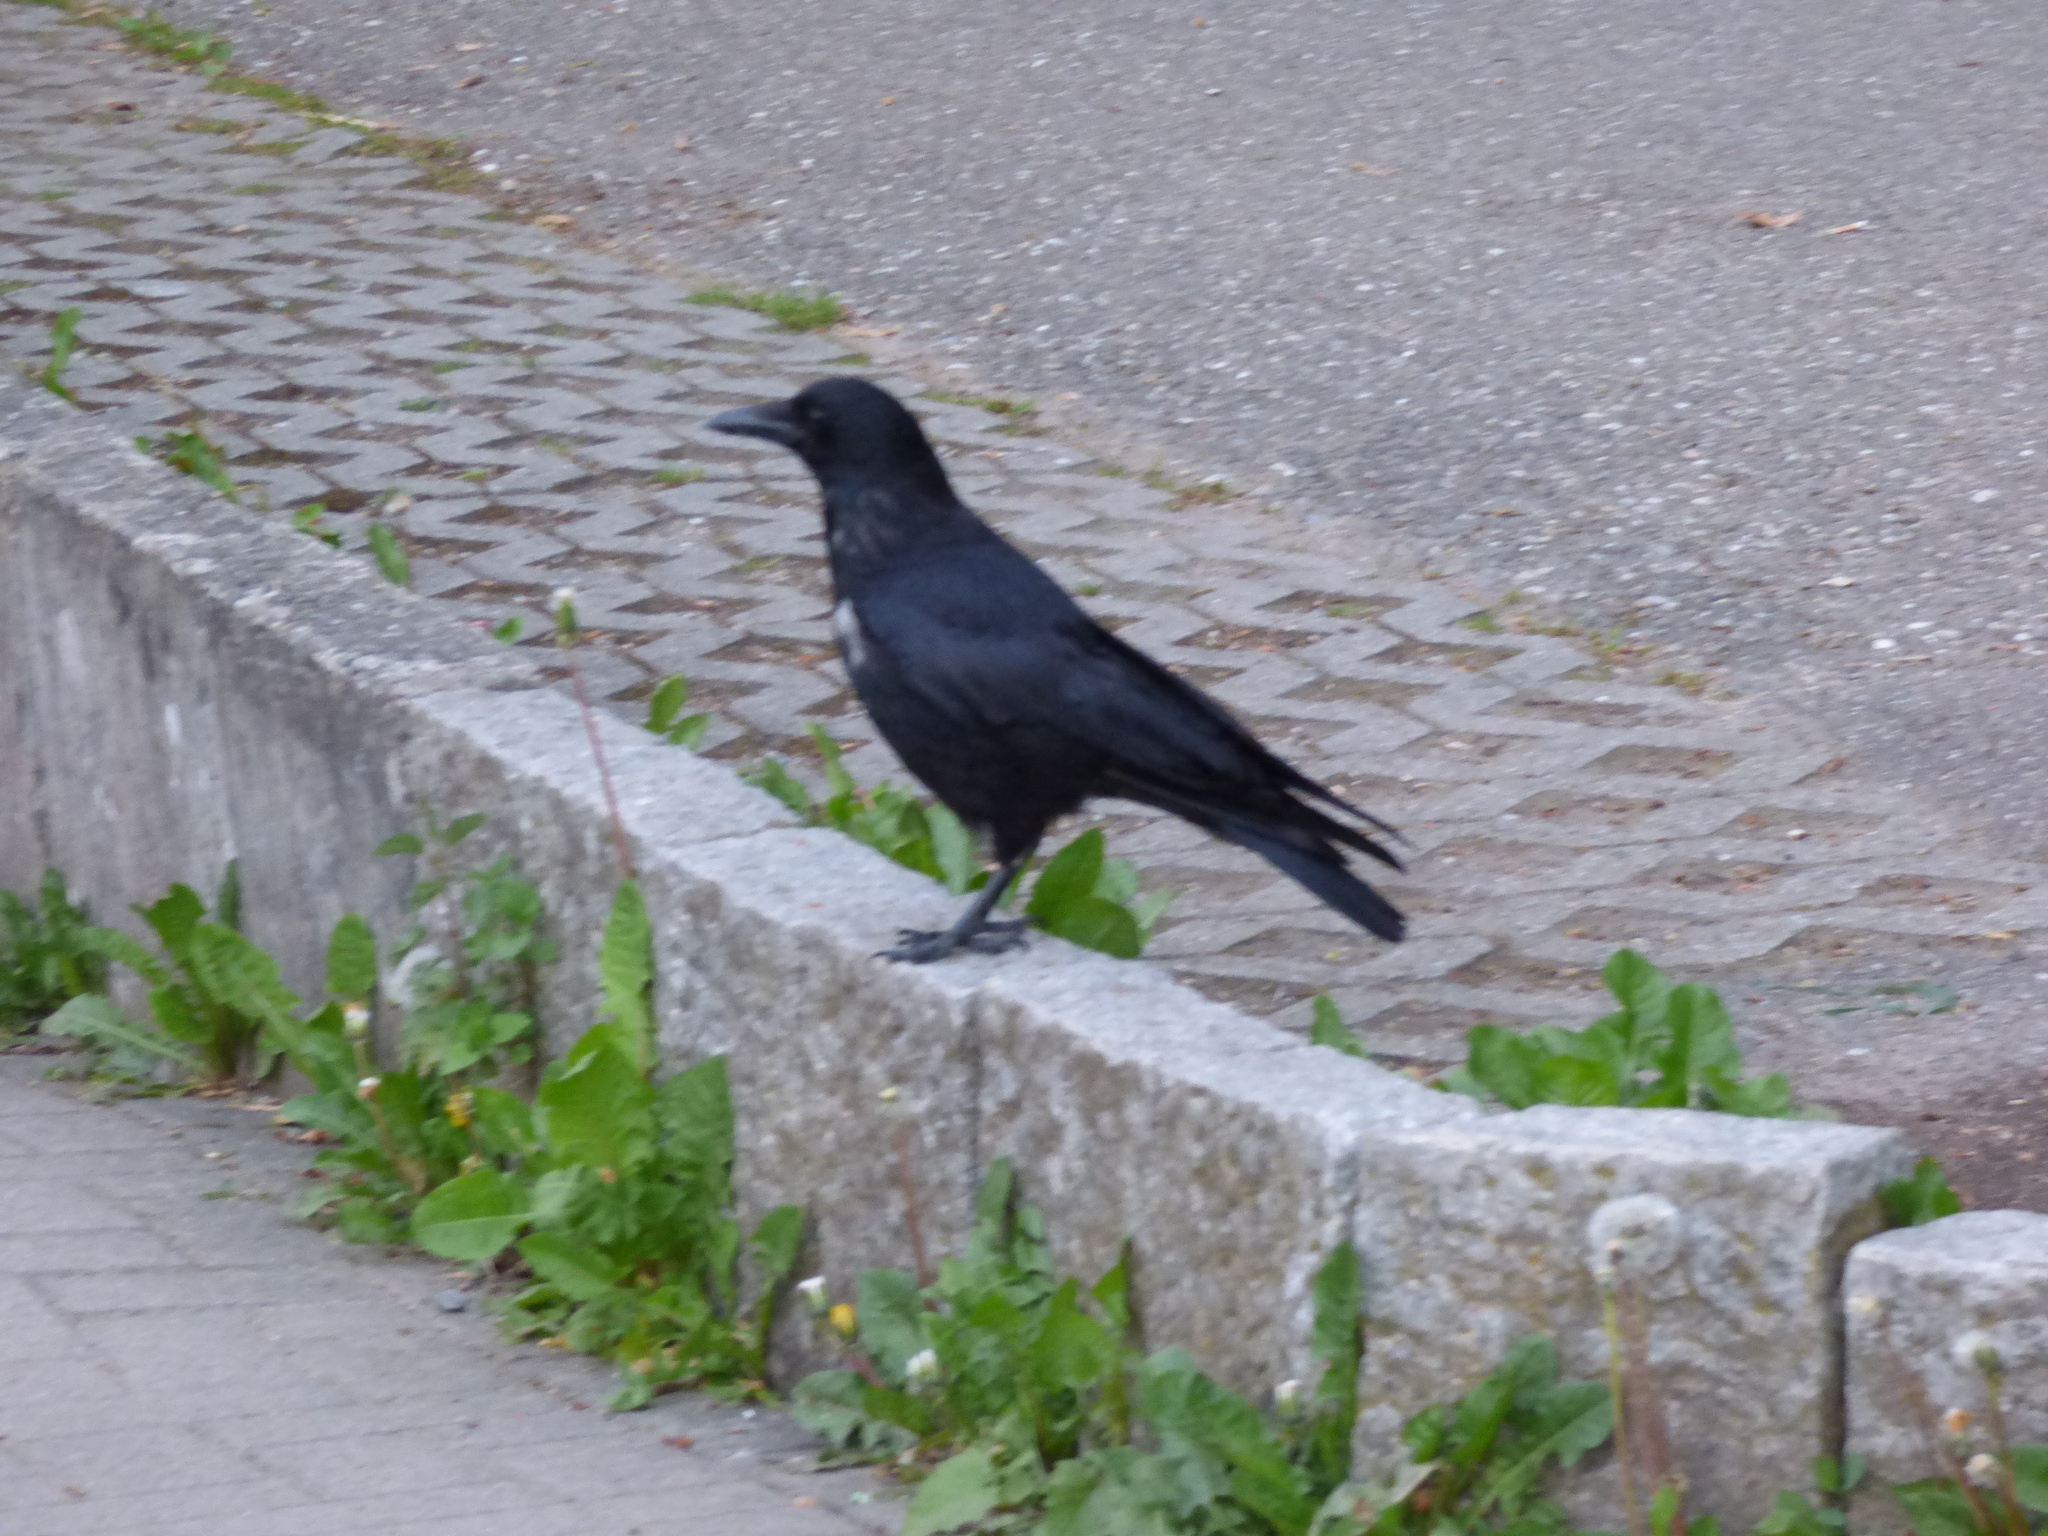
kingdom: Animalia
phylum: Chordata
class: Aves
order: Passeriformes
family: Corvidae
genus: Corvus
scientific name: Corvus corone
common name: Carrion crow
